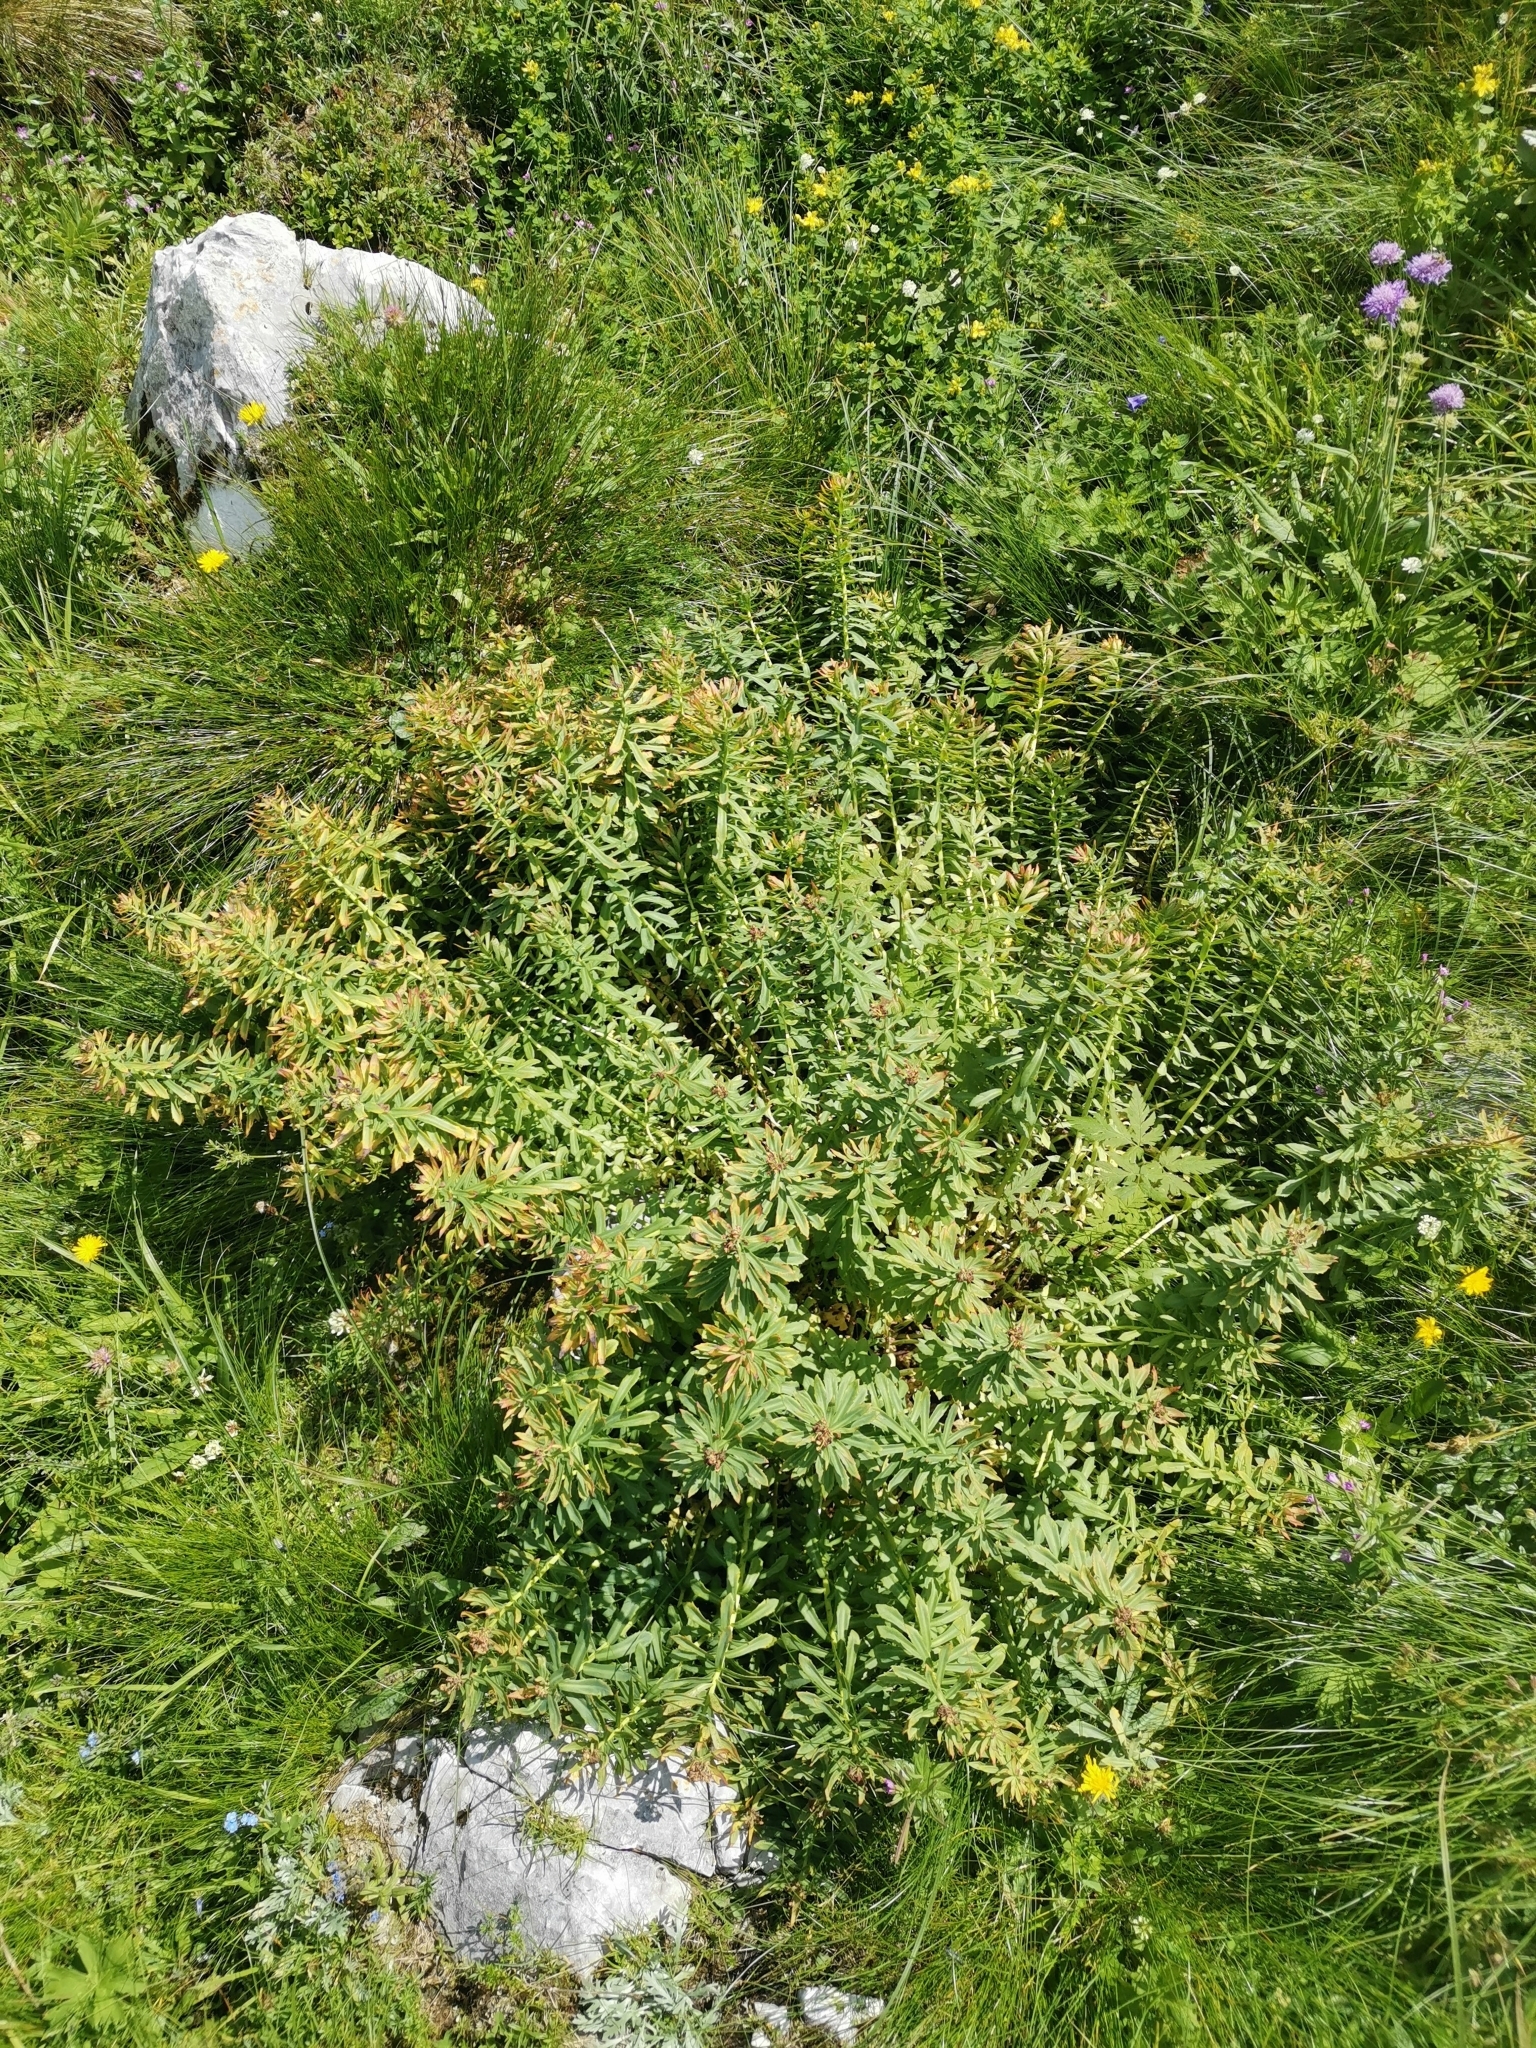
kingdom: Plantae
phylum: Tracheophyta
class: Magnoliopsida
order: Saxifragales
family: Crassulaceae
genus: Rhodiola
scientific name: Rhodiola rosea
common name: Roseroot
